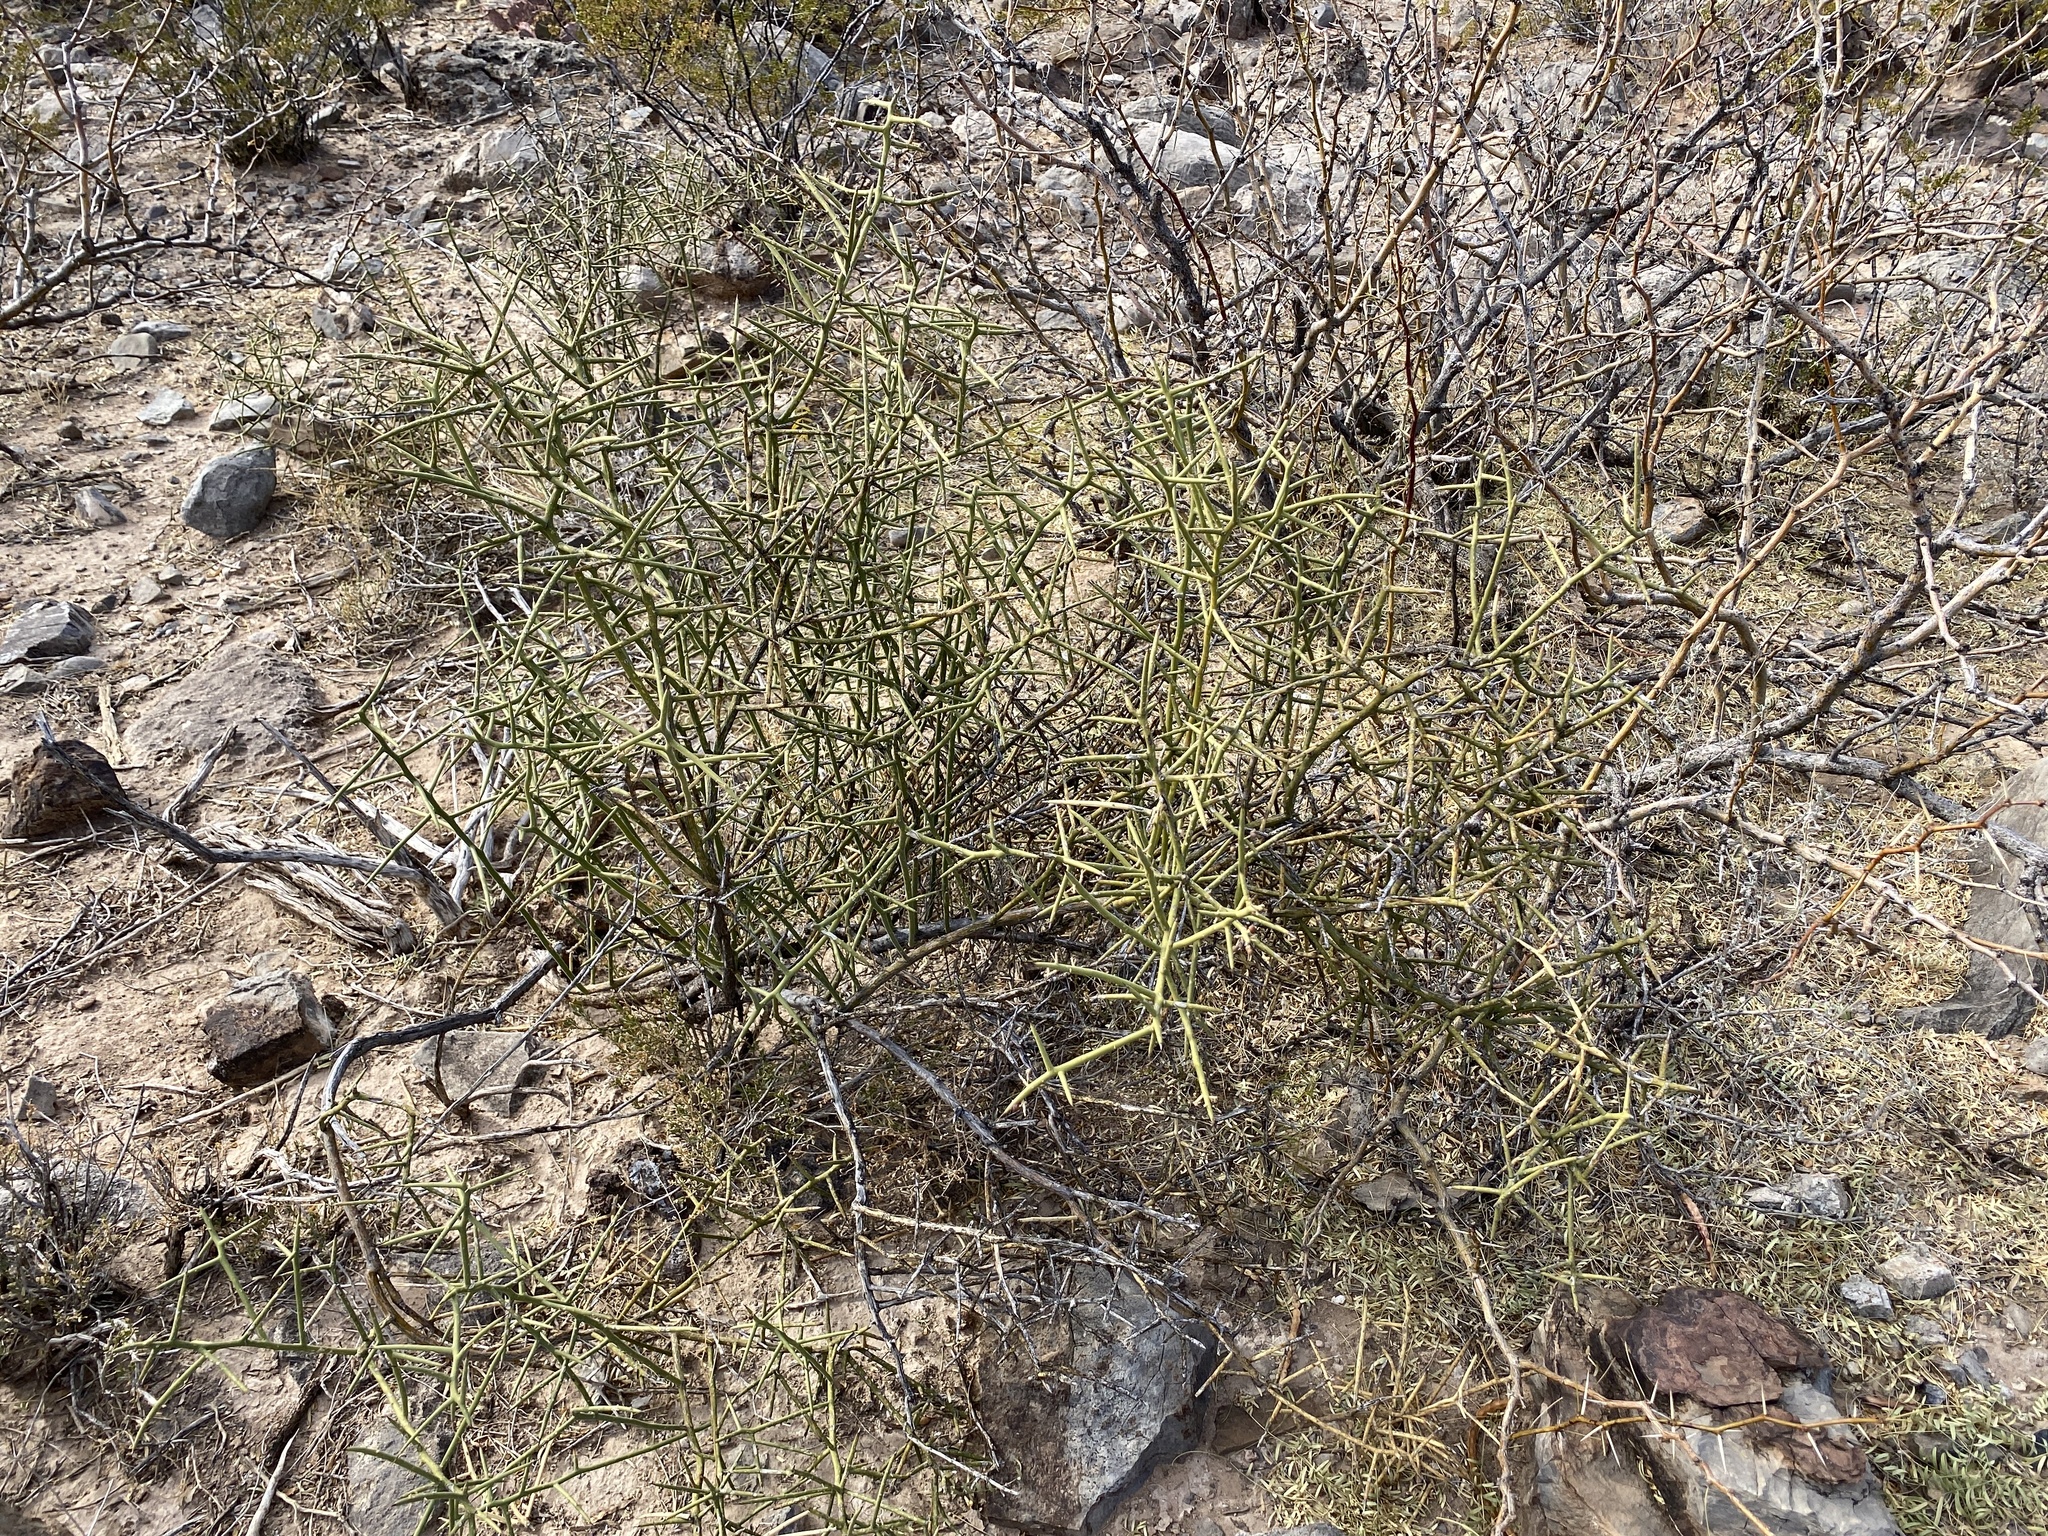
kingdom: Plantae
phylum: Tracheophyta
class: Magnoliopsida
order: Brassicales
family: Koeberliniaceae
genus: Koeberlinia
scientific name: Koeberlinia spinosa
